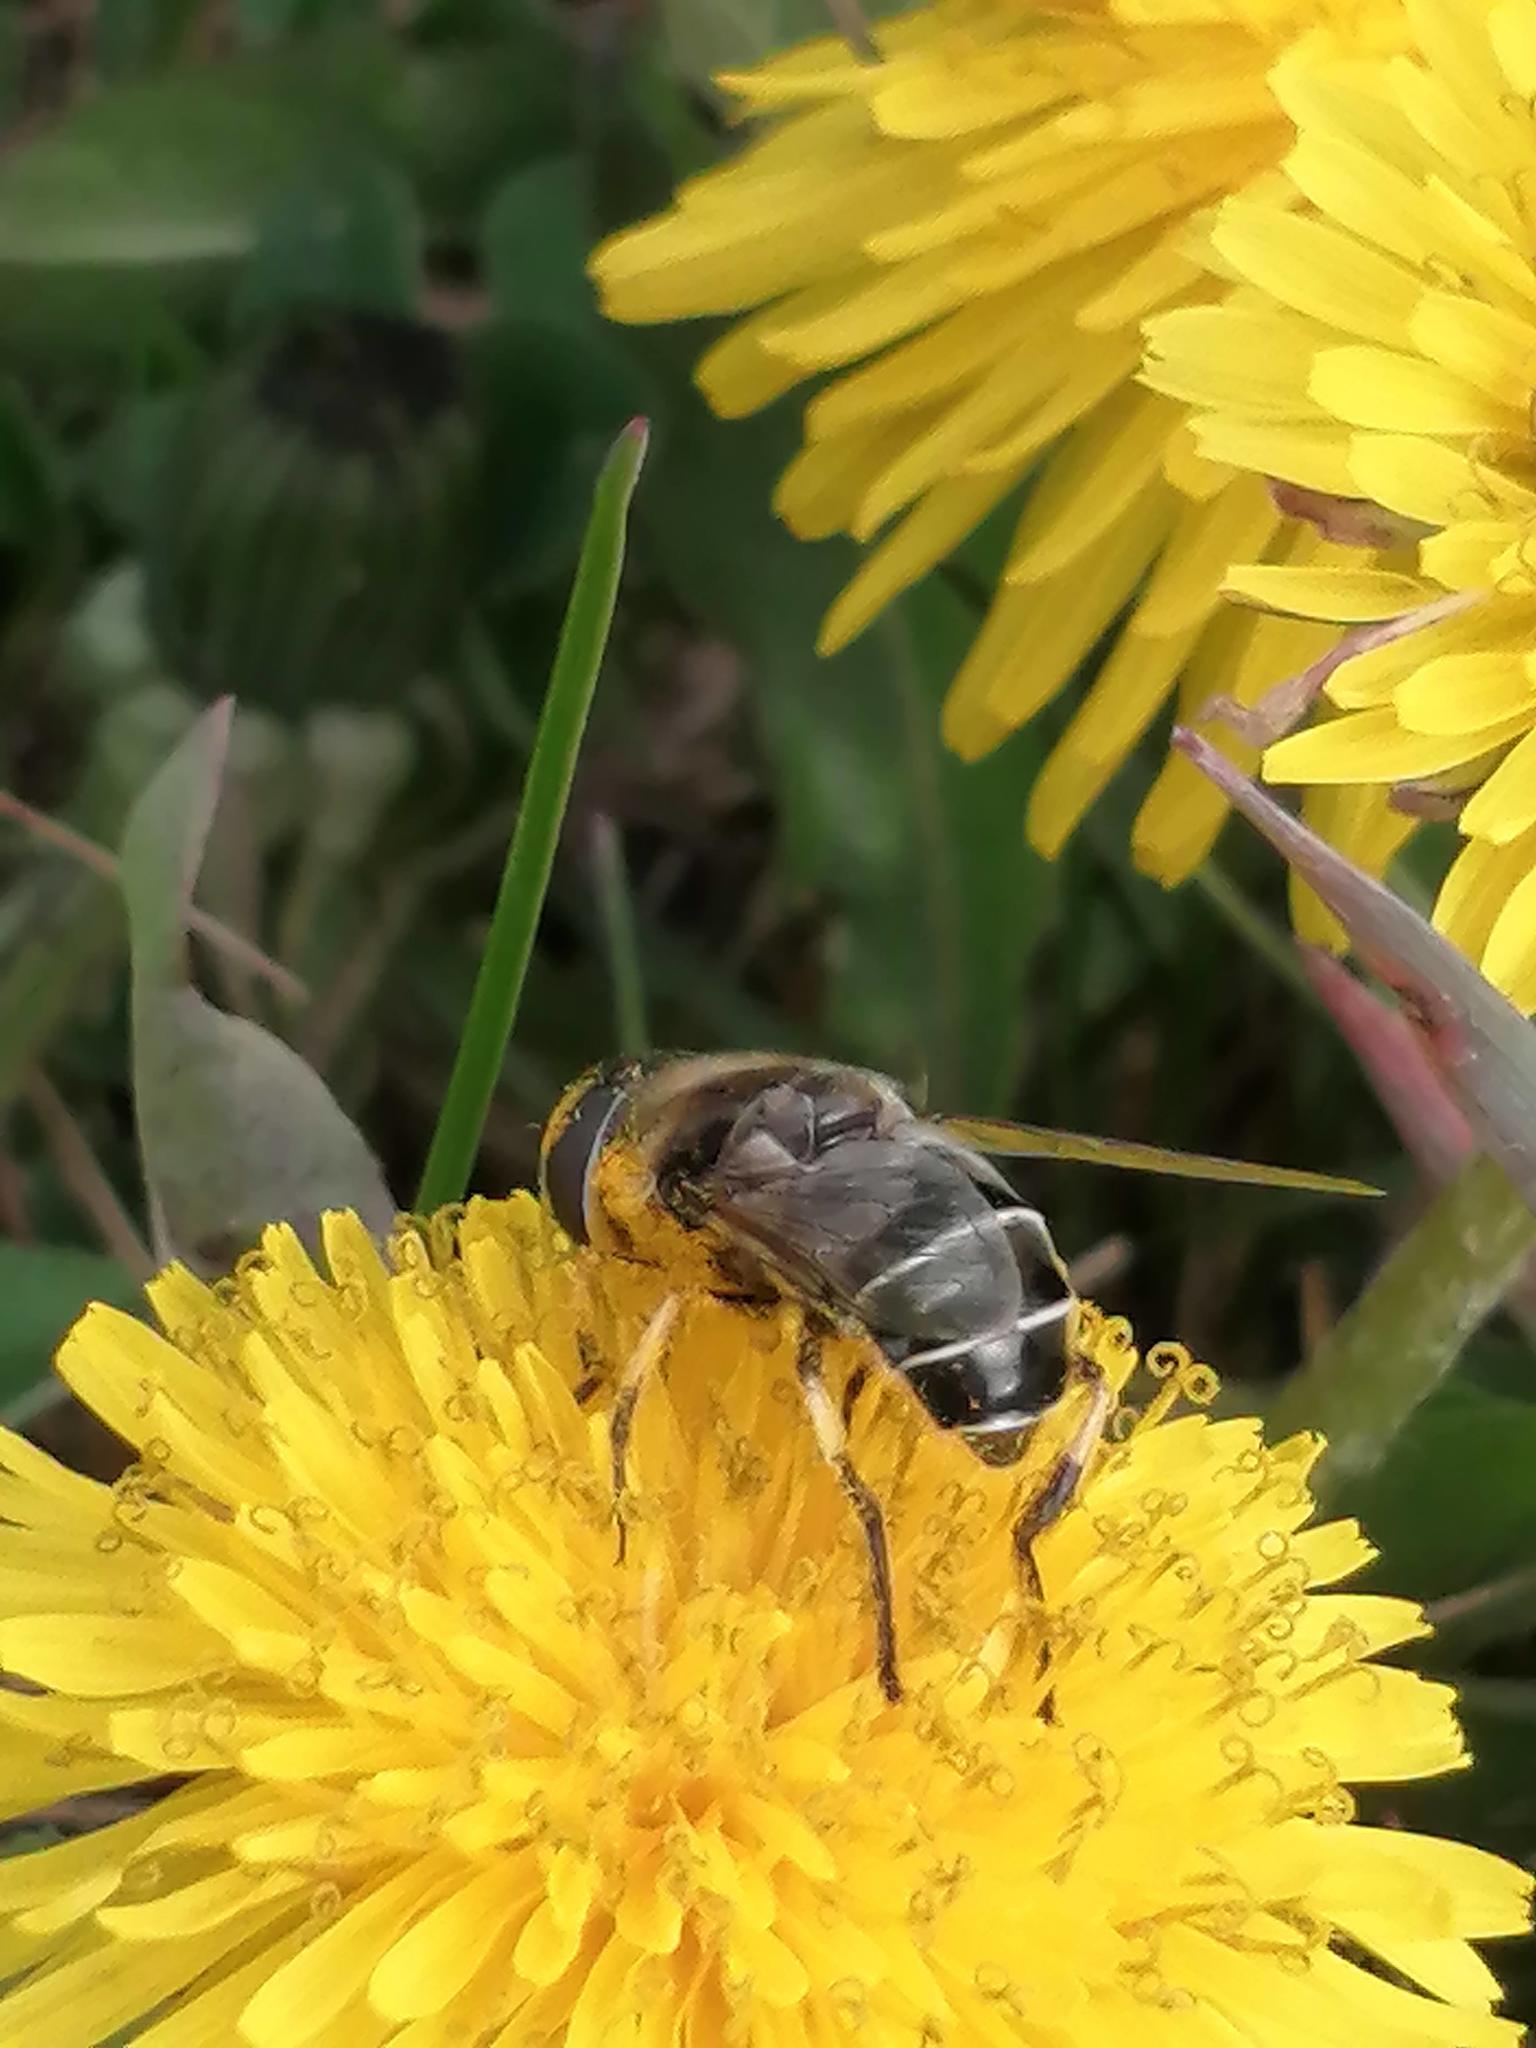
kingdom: Animalia
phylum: Arthropoda
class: Insecta
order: Diptera
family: Syrphidae
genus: Eristalis
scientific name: Eristalis dimidiata
